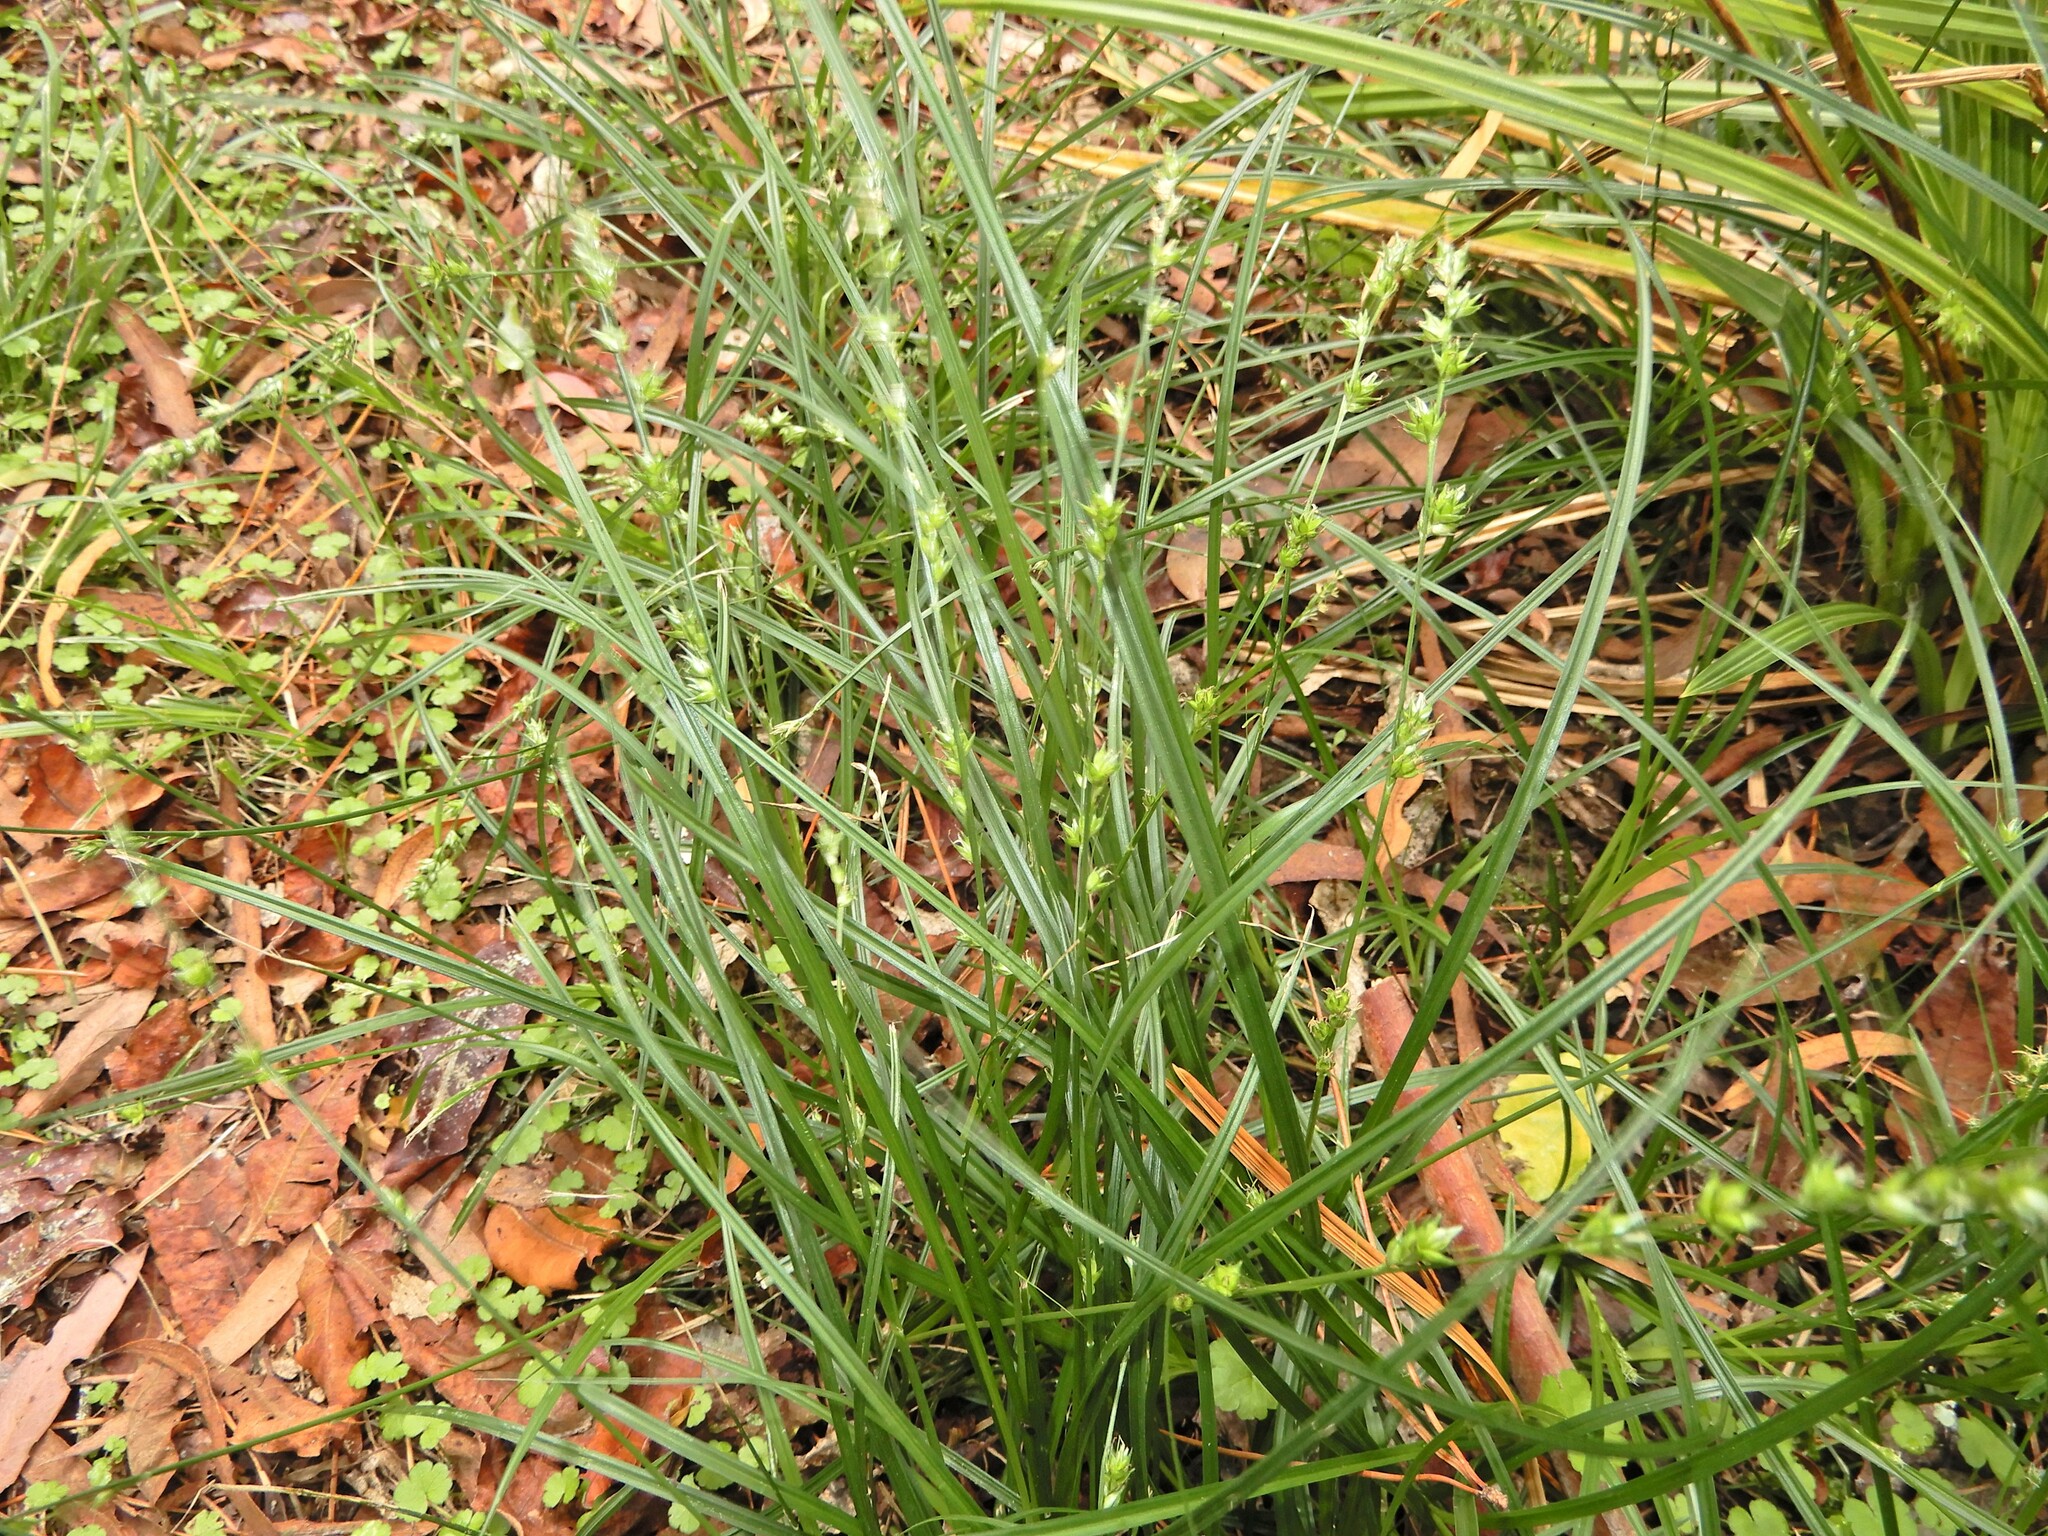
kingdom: Plantae
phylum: Tracheophyta
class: Liliopsida
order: Poales
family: Cyperaceae
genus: Carex
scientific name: Carex divulsa
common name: Grassland sedge
